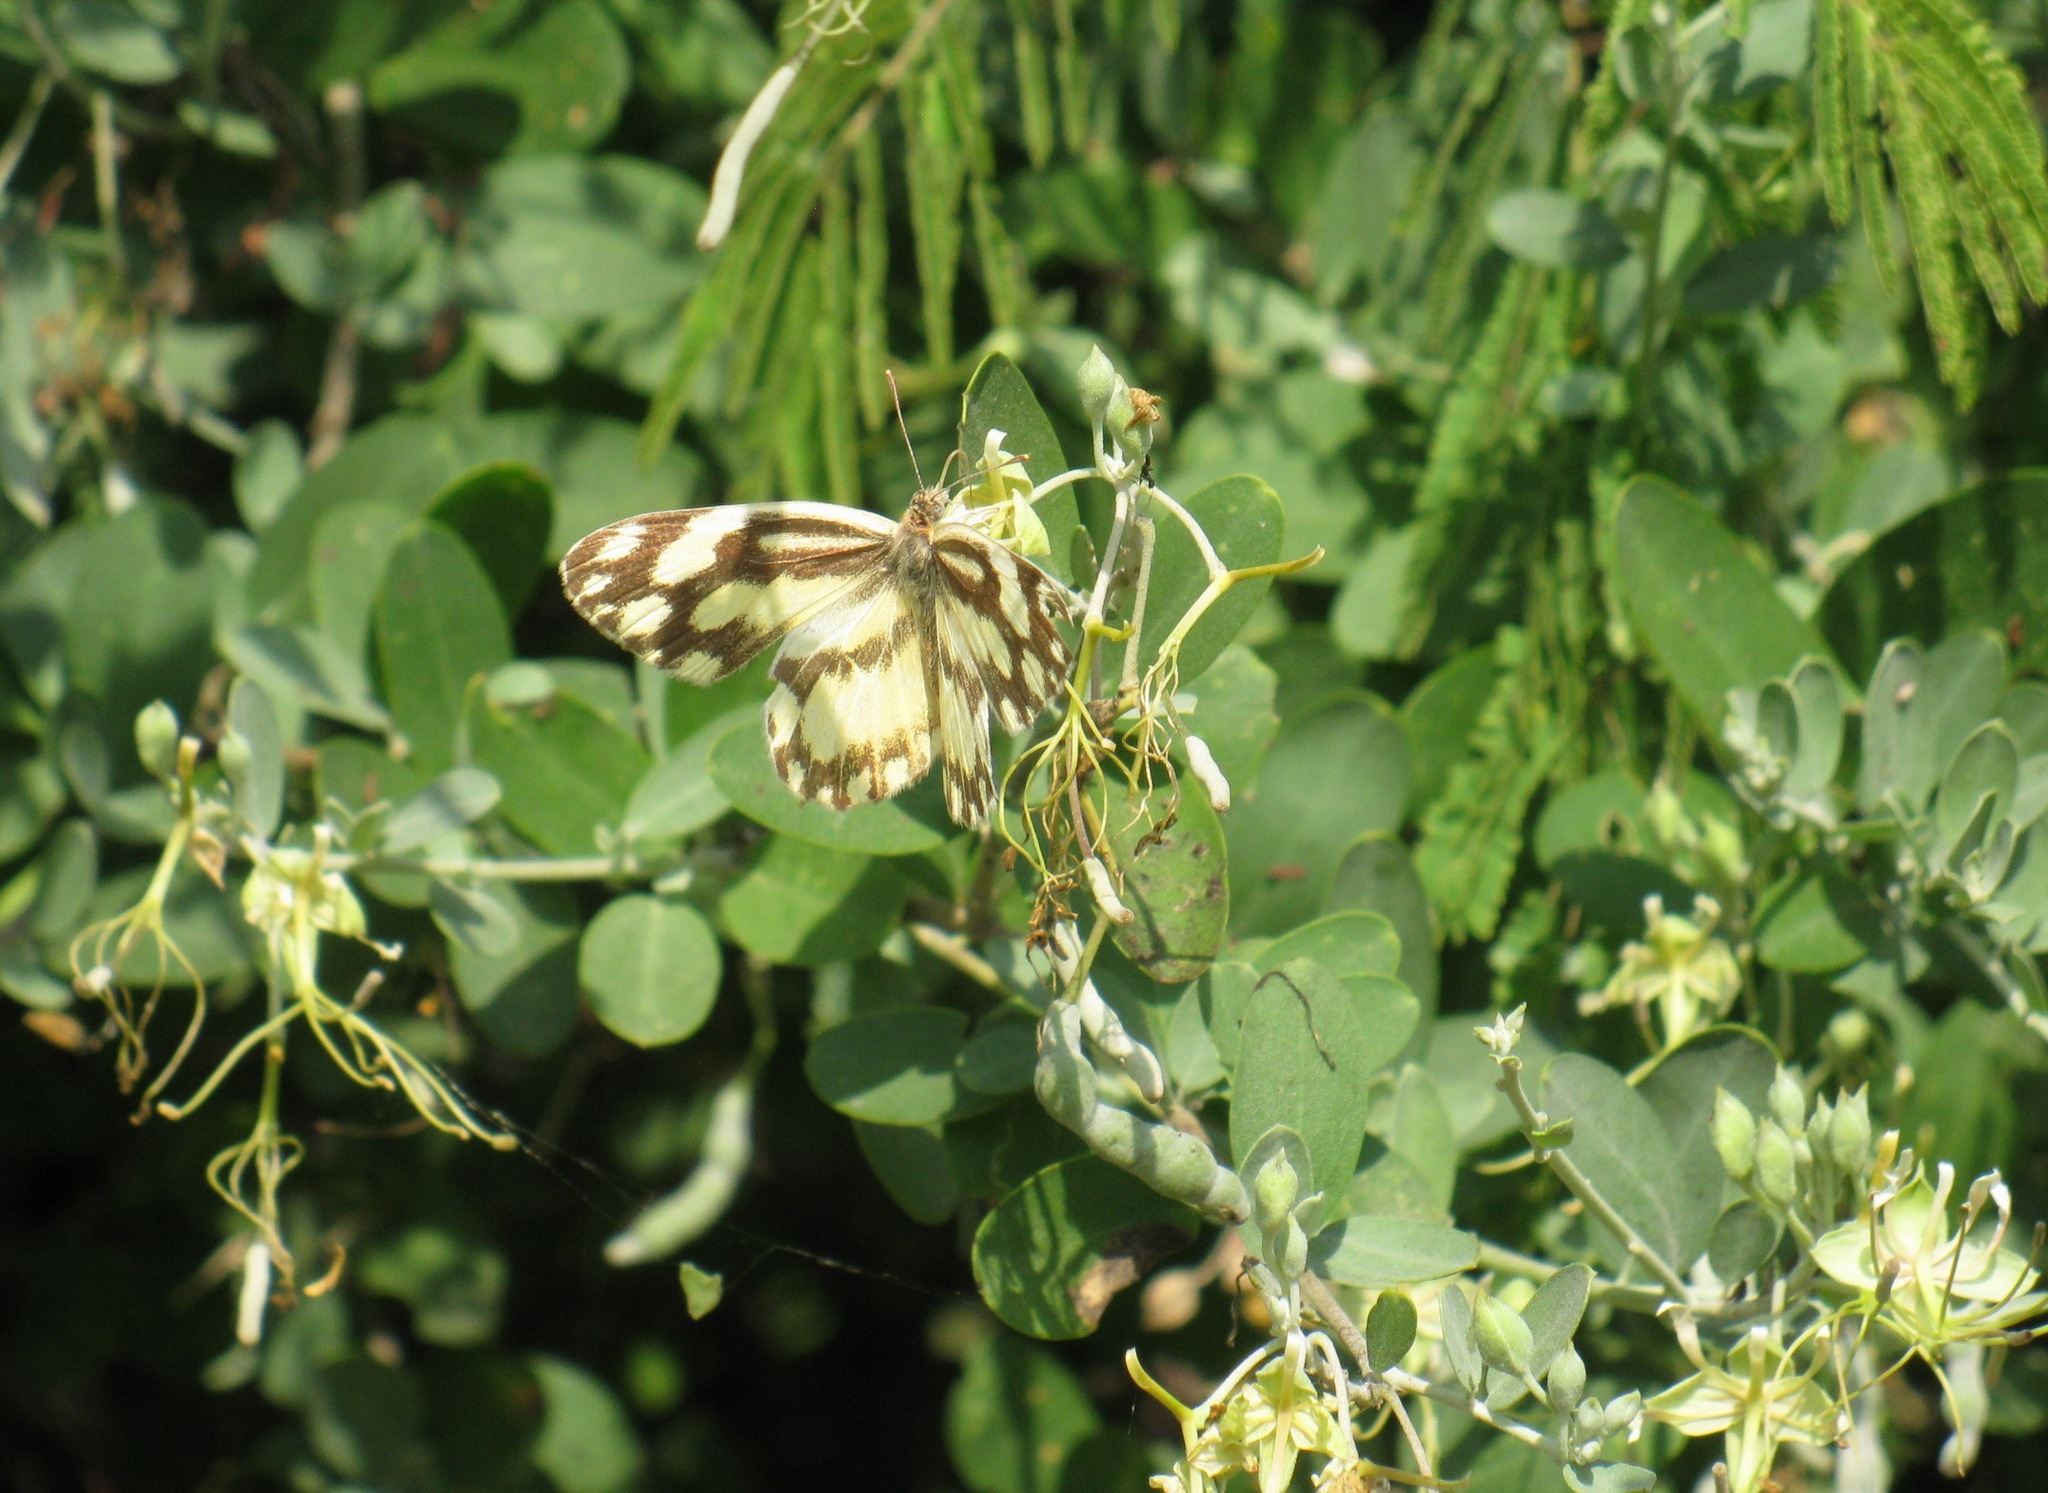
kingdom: Animalia
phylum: Arthropoda
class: Insecta
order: Lepidoptera
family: Pieridae
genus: Pinacopteryx
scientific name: Pinacopteryx eriphia
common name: Zebra white
